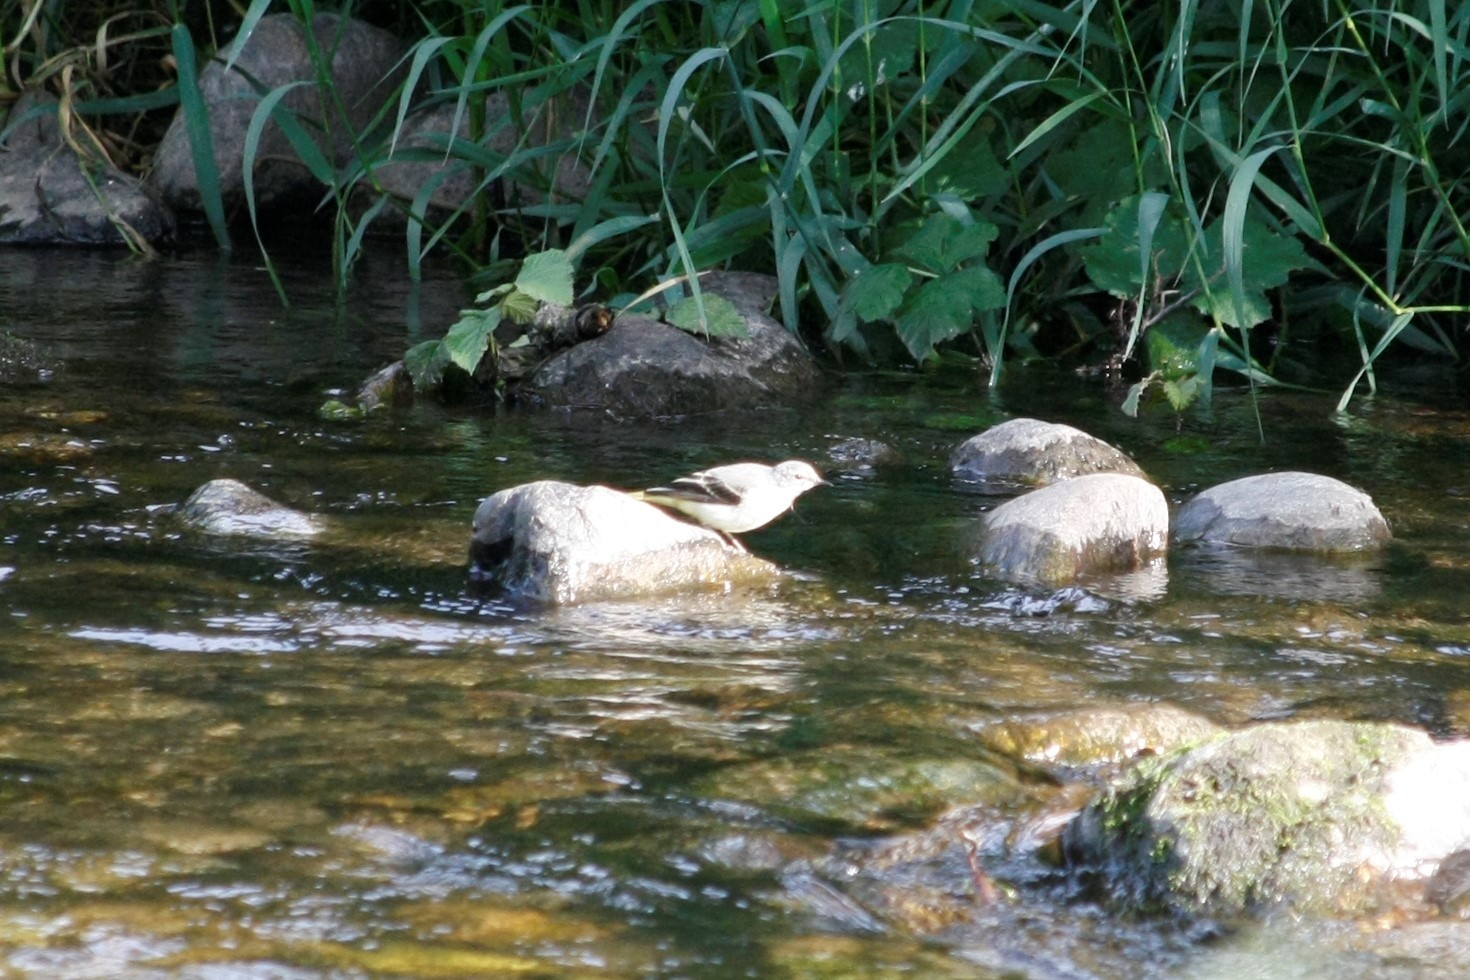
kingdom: Animalia
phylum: Chordata
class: Aves
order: Passeriformes
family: Motacillidae
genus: Motacilla
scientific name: Motacilla cinerea
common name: Grey wagtail
